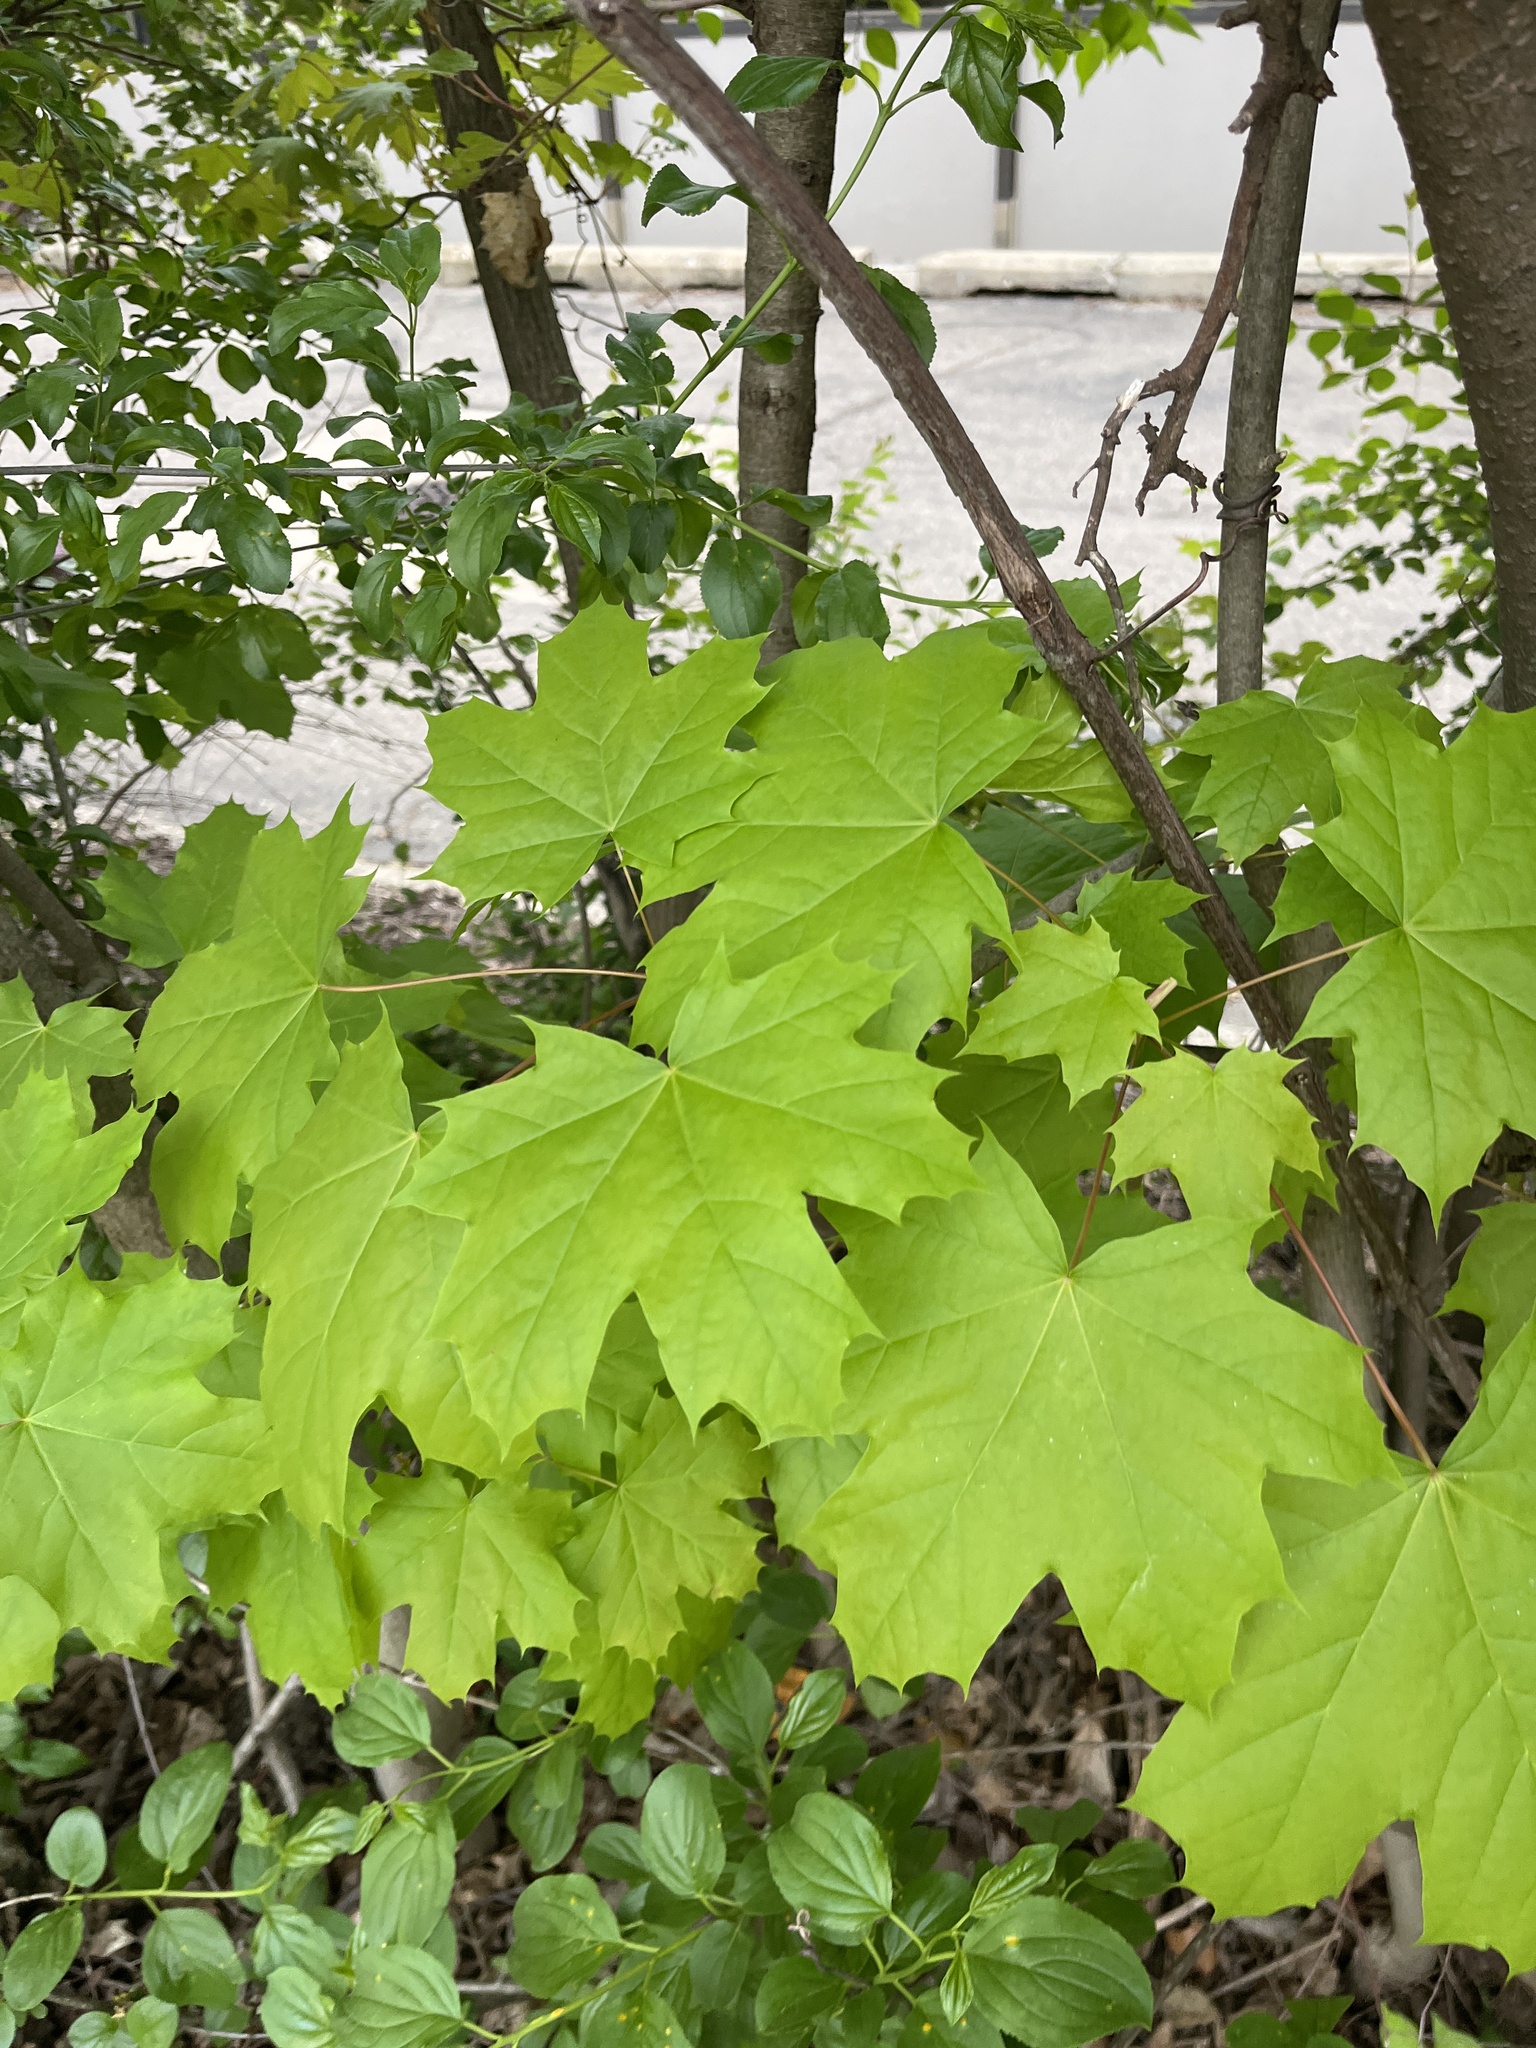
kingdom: Plantae
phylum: Tracheophyta
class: Magnoliopsida
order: Sapindales
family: Sapindaceae
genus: Acer
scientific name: Acer platanoides
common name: Norway maple
